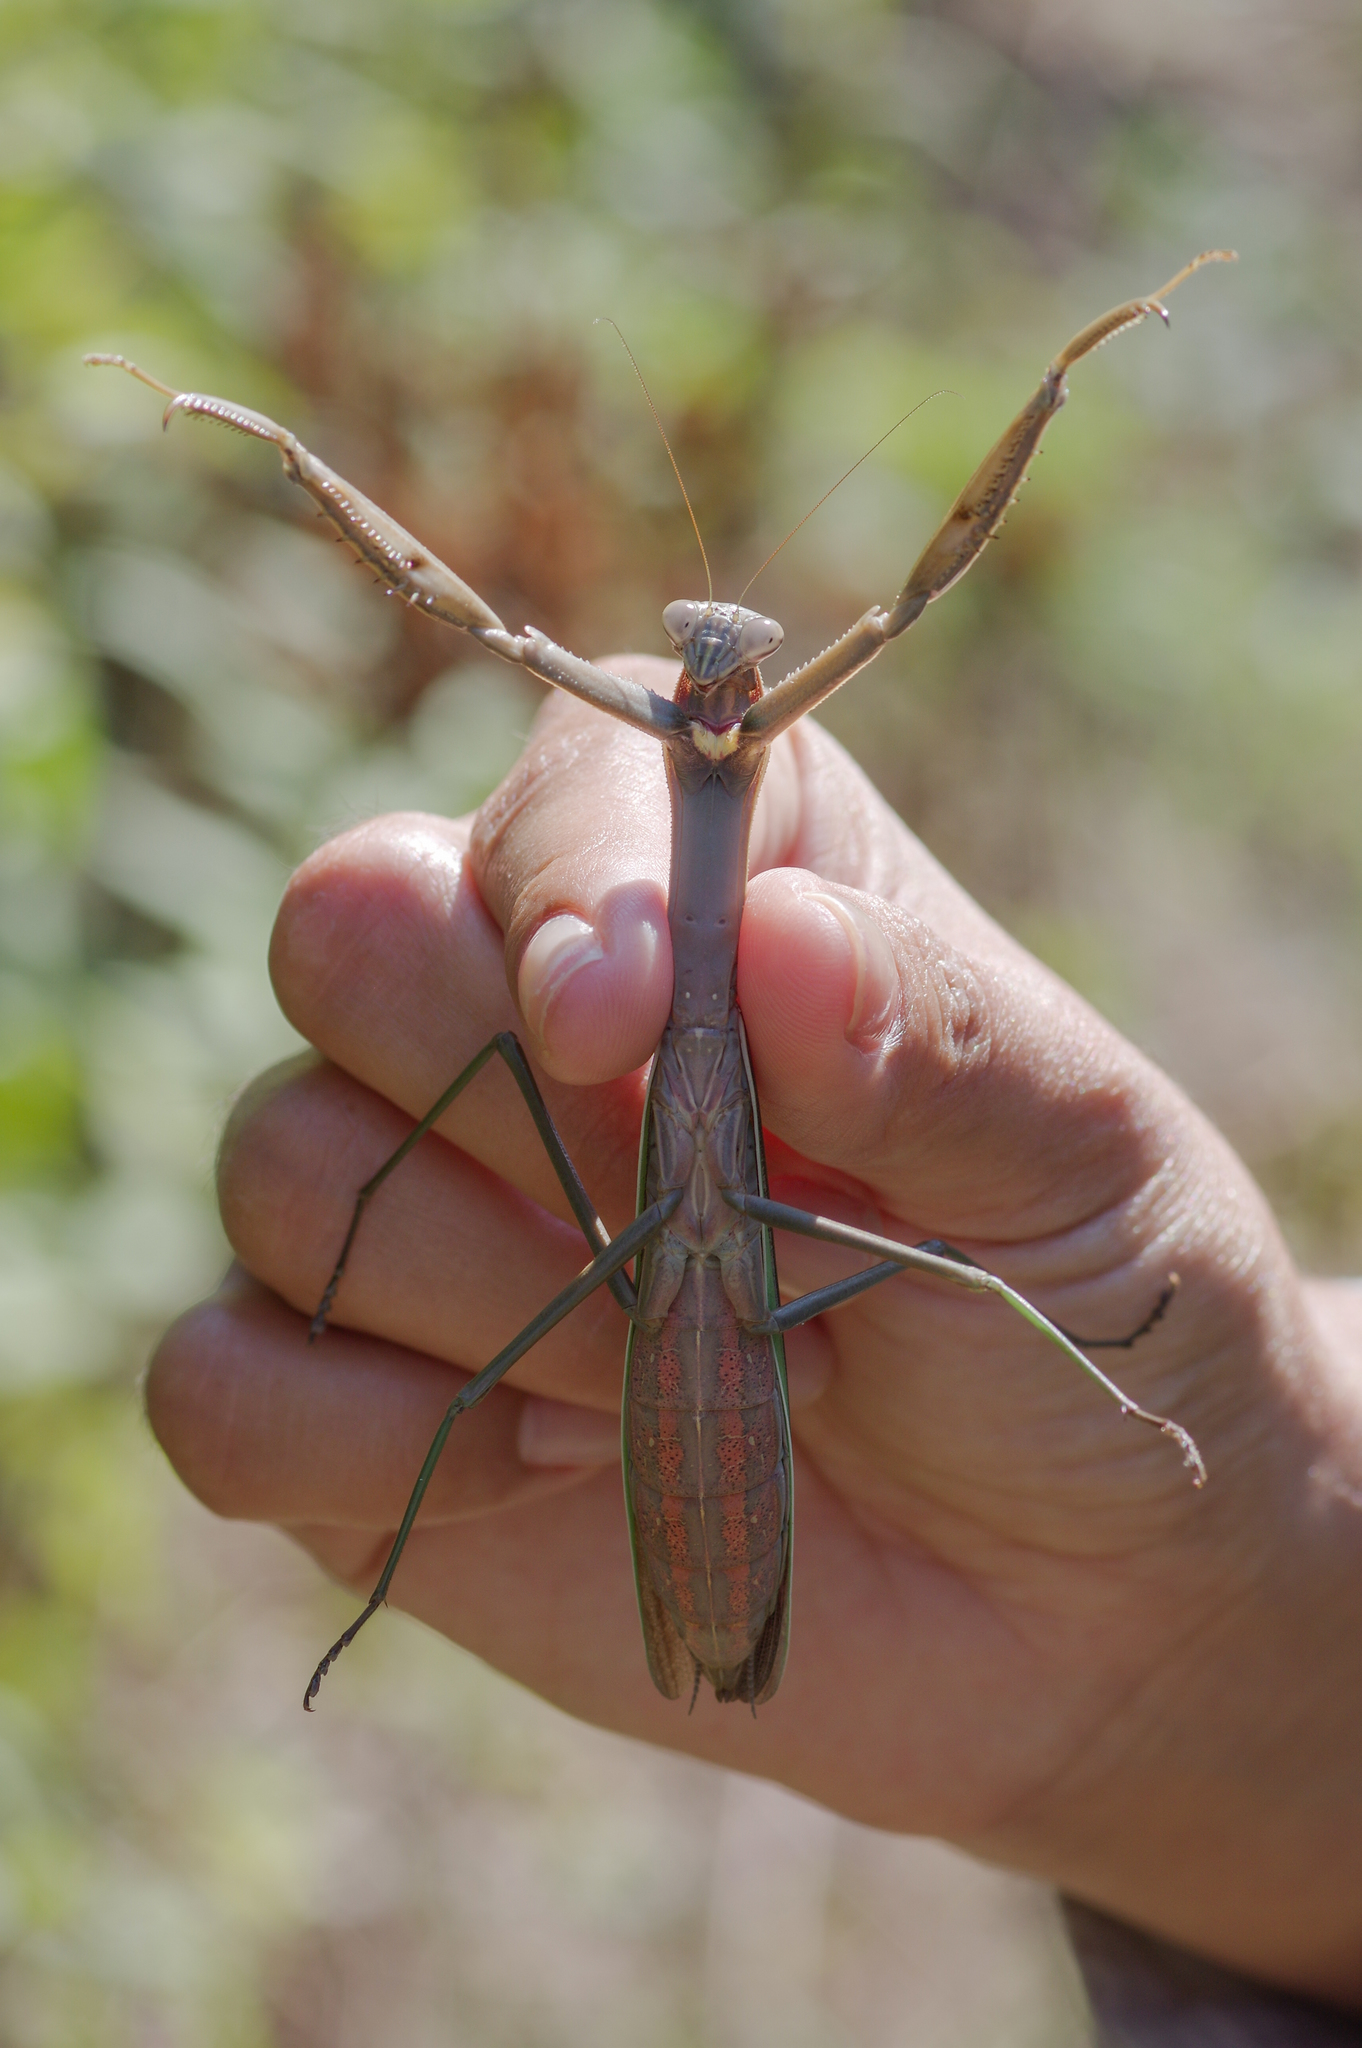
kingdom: Animalia
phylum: Arthropoda
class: Insecta
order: Mantodea
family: Mantidae
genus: Tenodera
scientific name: Tenodera sinensis
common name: Chinese mantis
